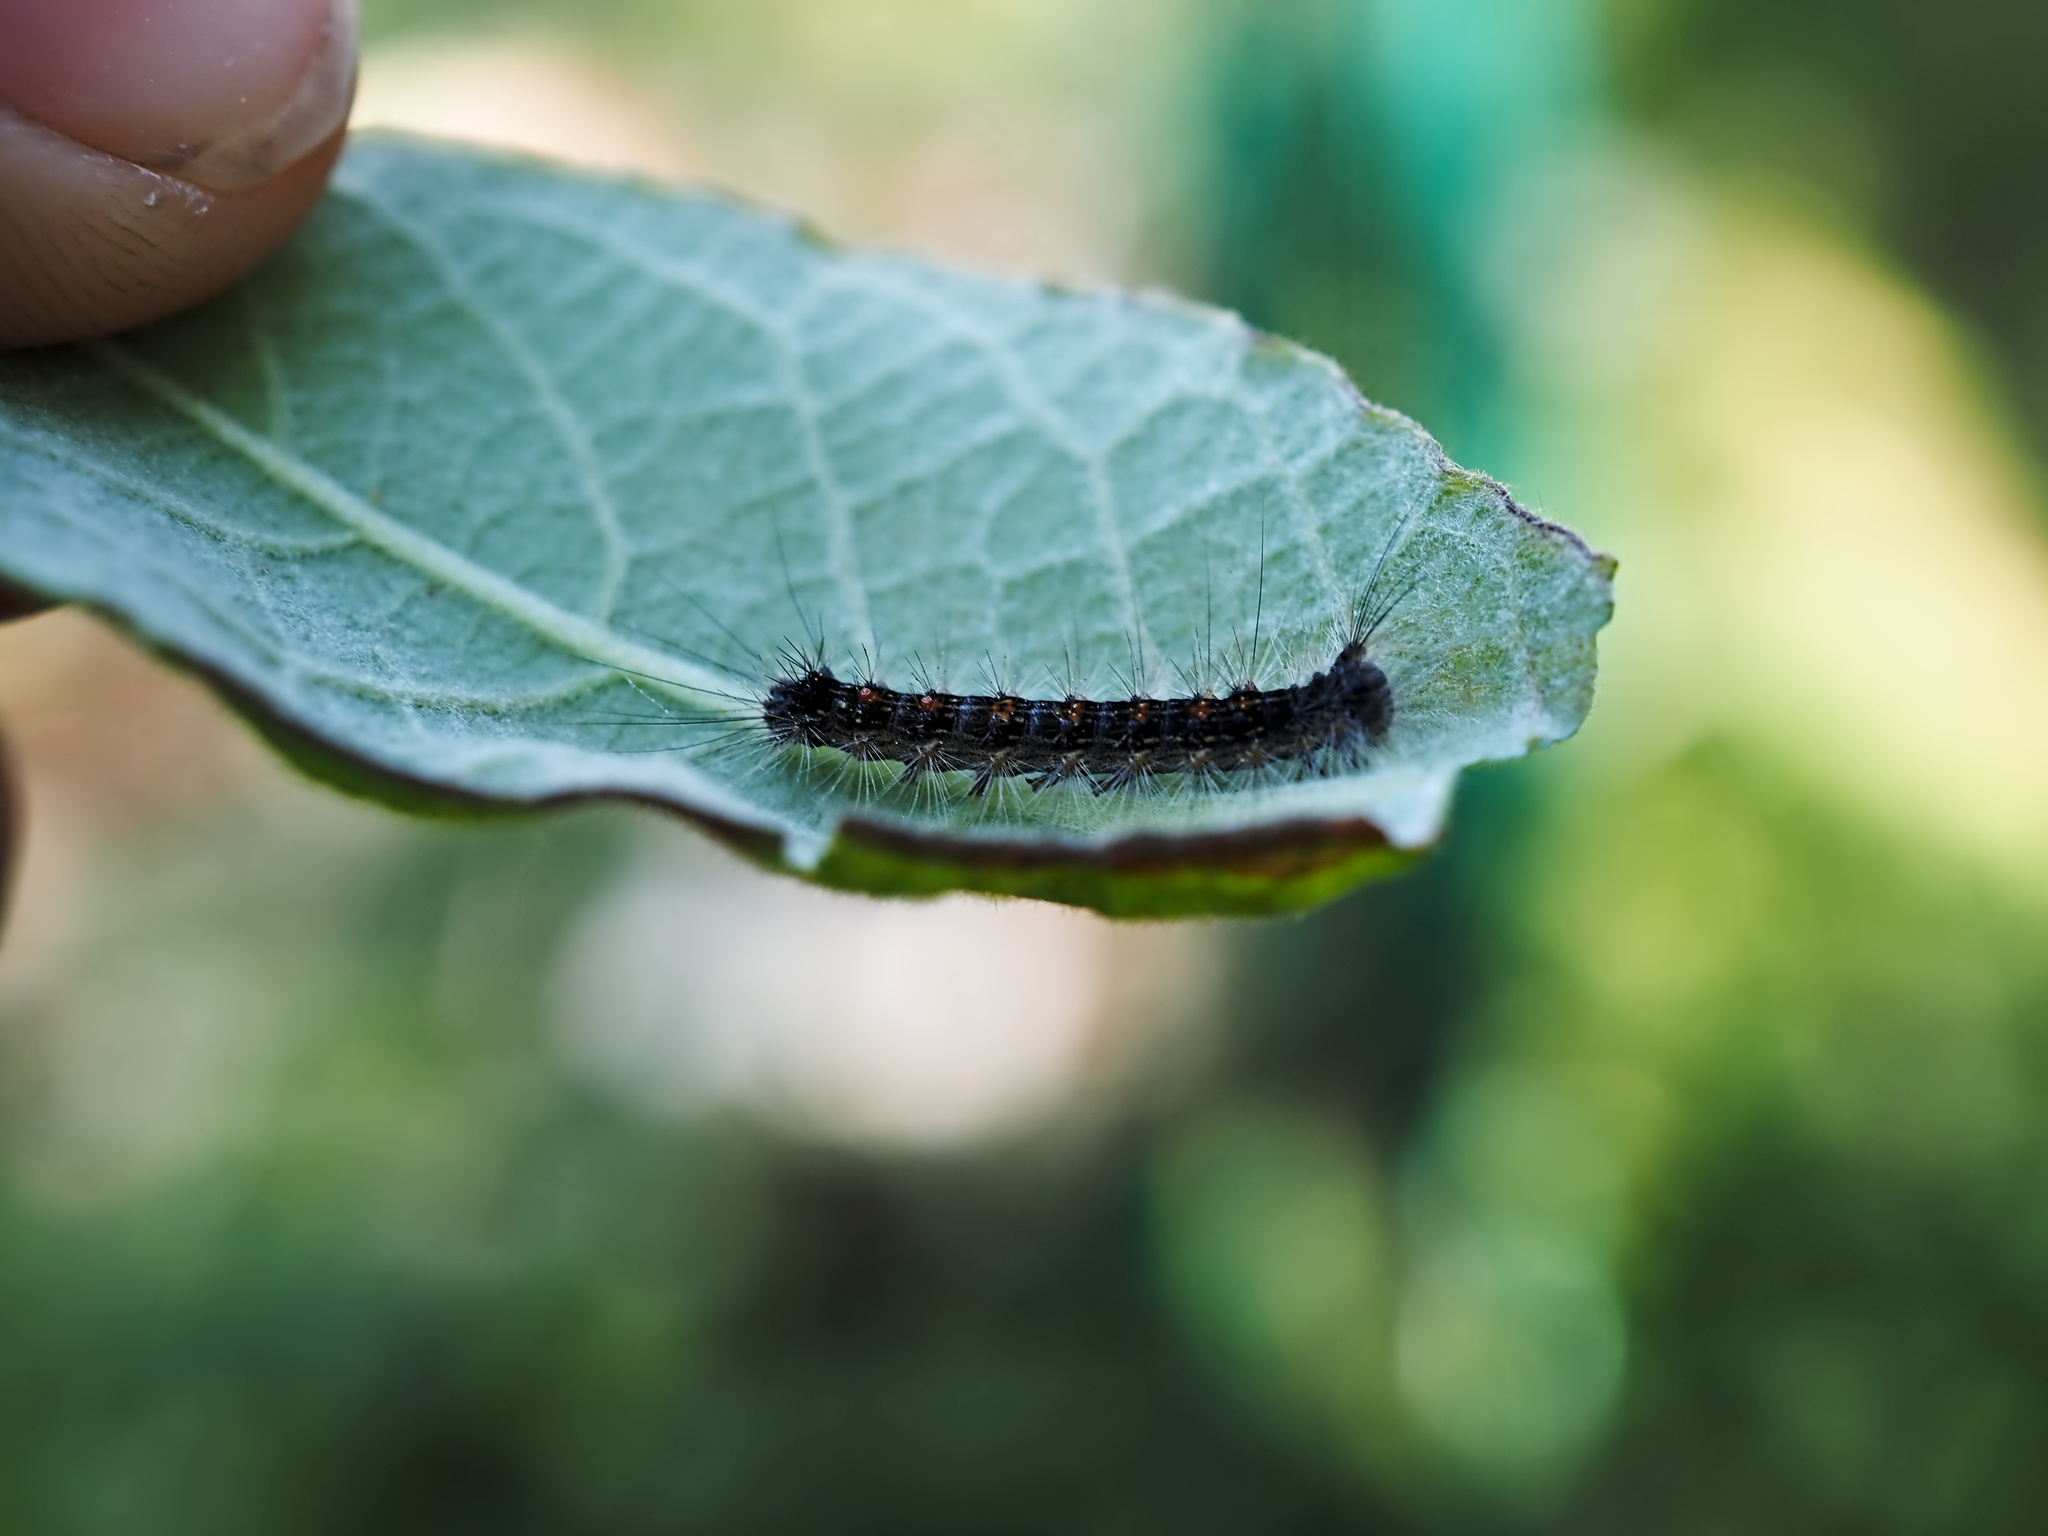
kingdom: Animalia
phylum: Arthropoda
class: Insecta
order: Lepidoptera
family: Erebidae
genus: Lymantria
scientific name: Lymantria dispar
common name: Gypsy moth
